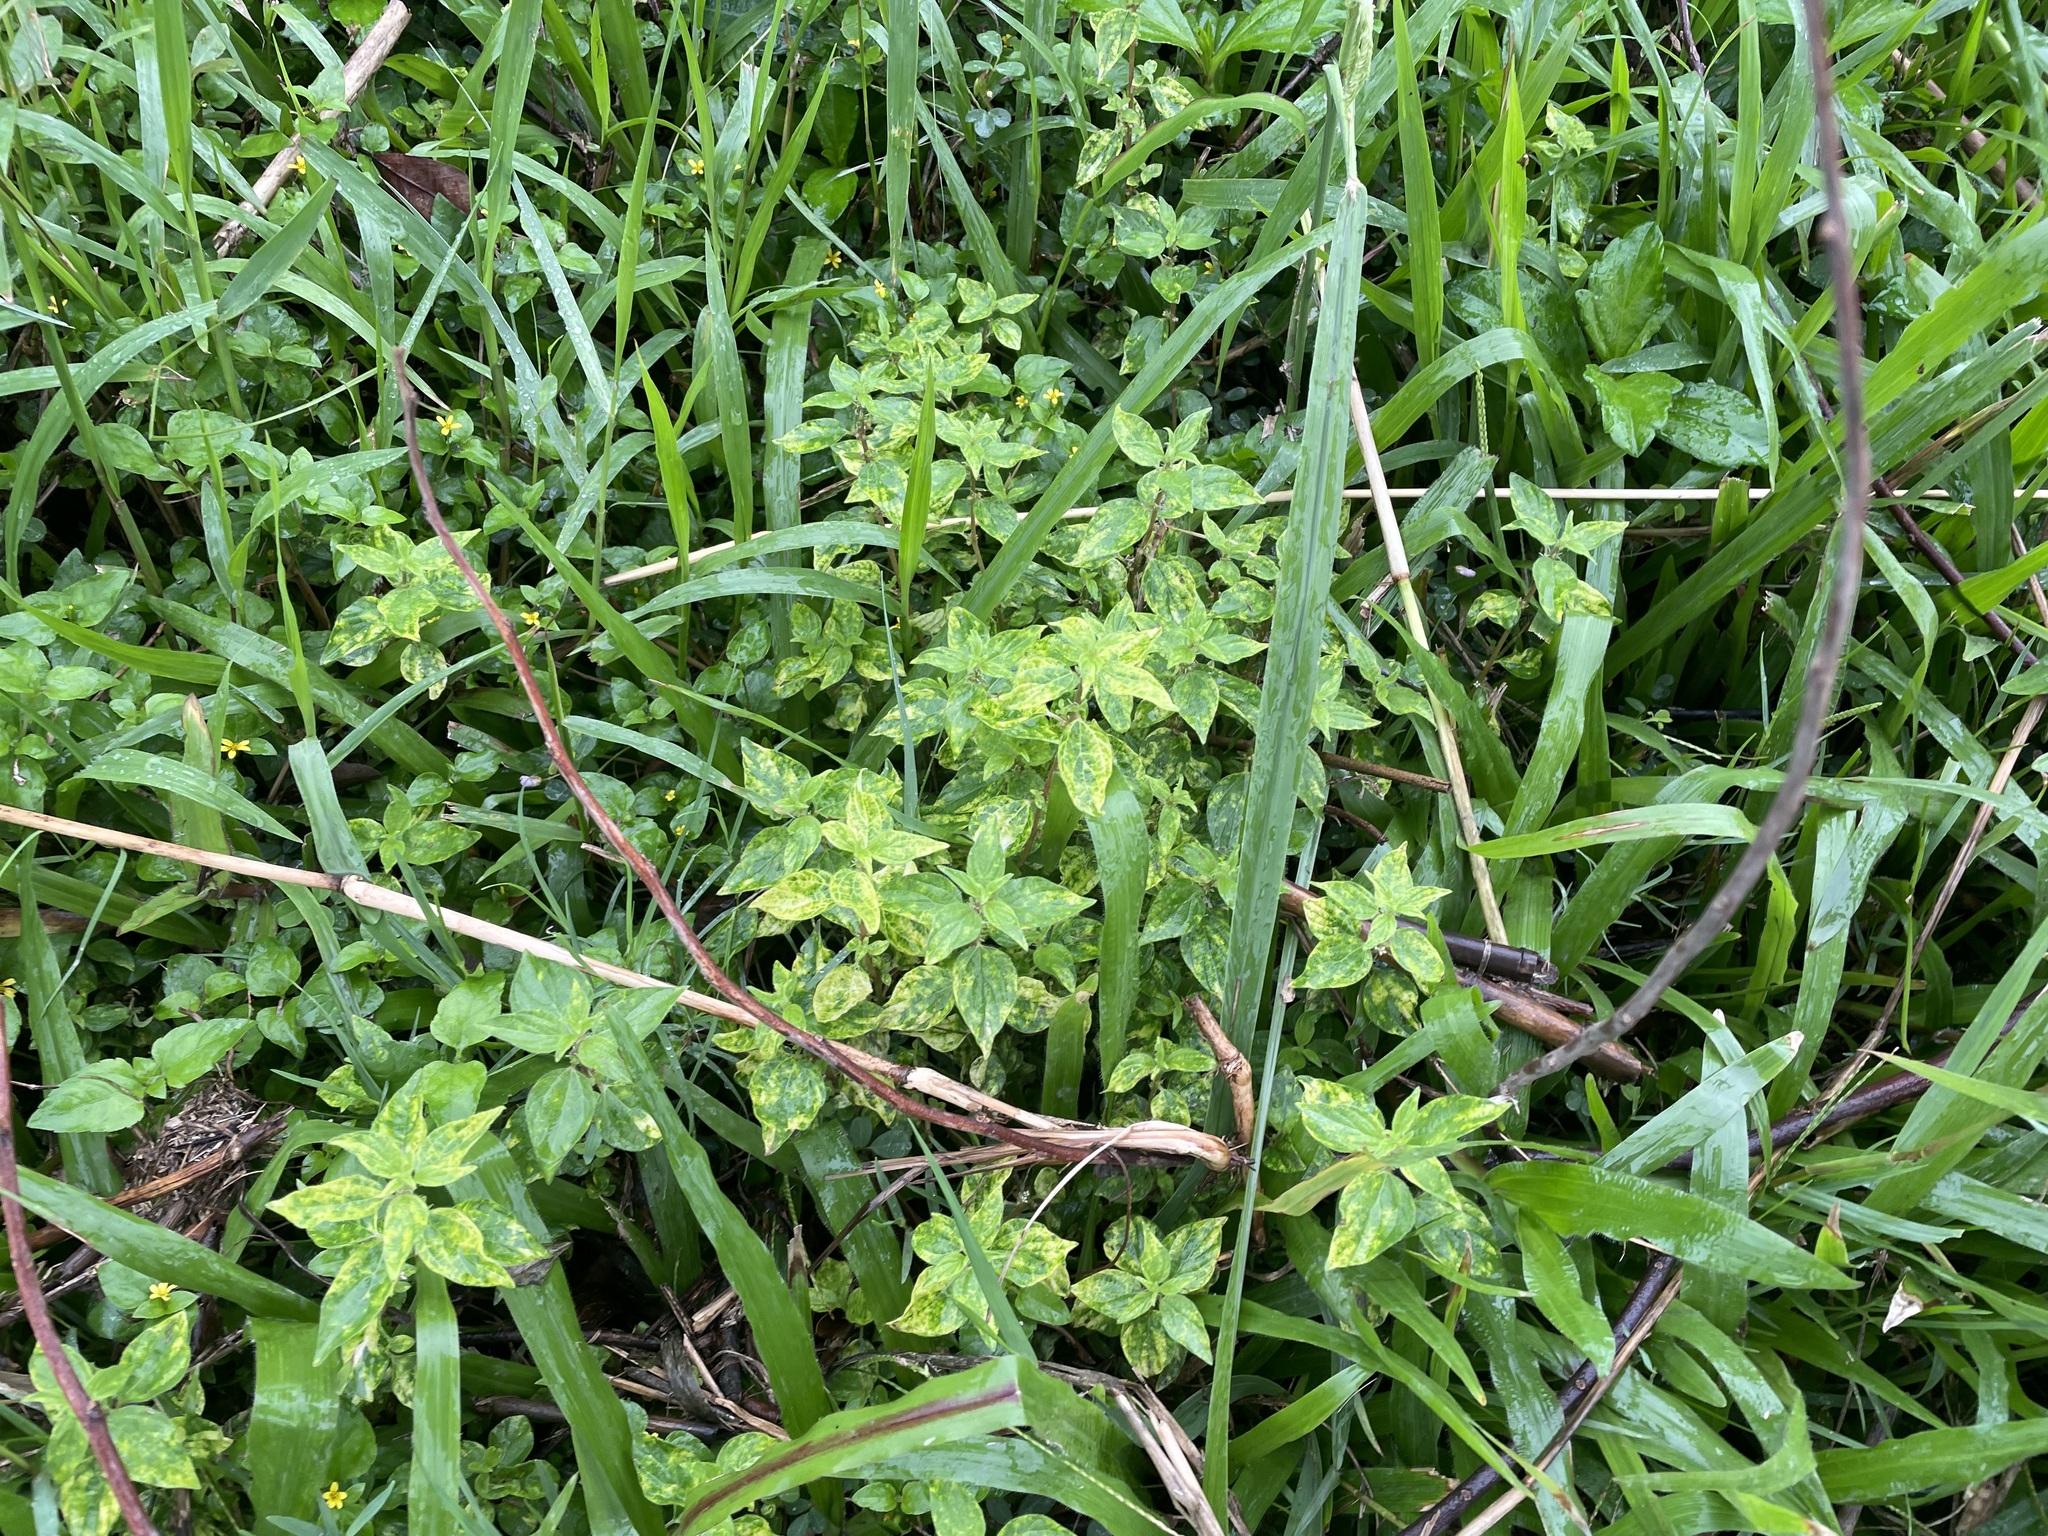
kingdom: Plantae
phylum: Tracheophyta
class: Magnoliopsida
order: Rosales
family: Urticaceae
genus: Pouzolzia
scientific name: Pouzolzia zeylanica
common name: Graceful pouzolzsbush
